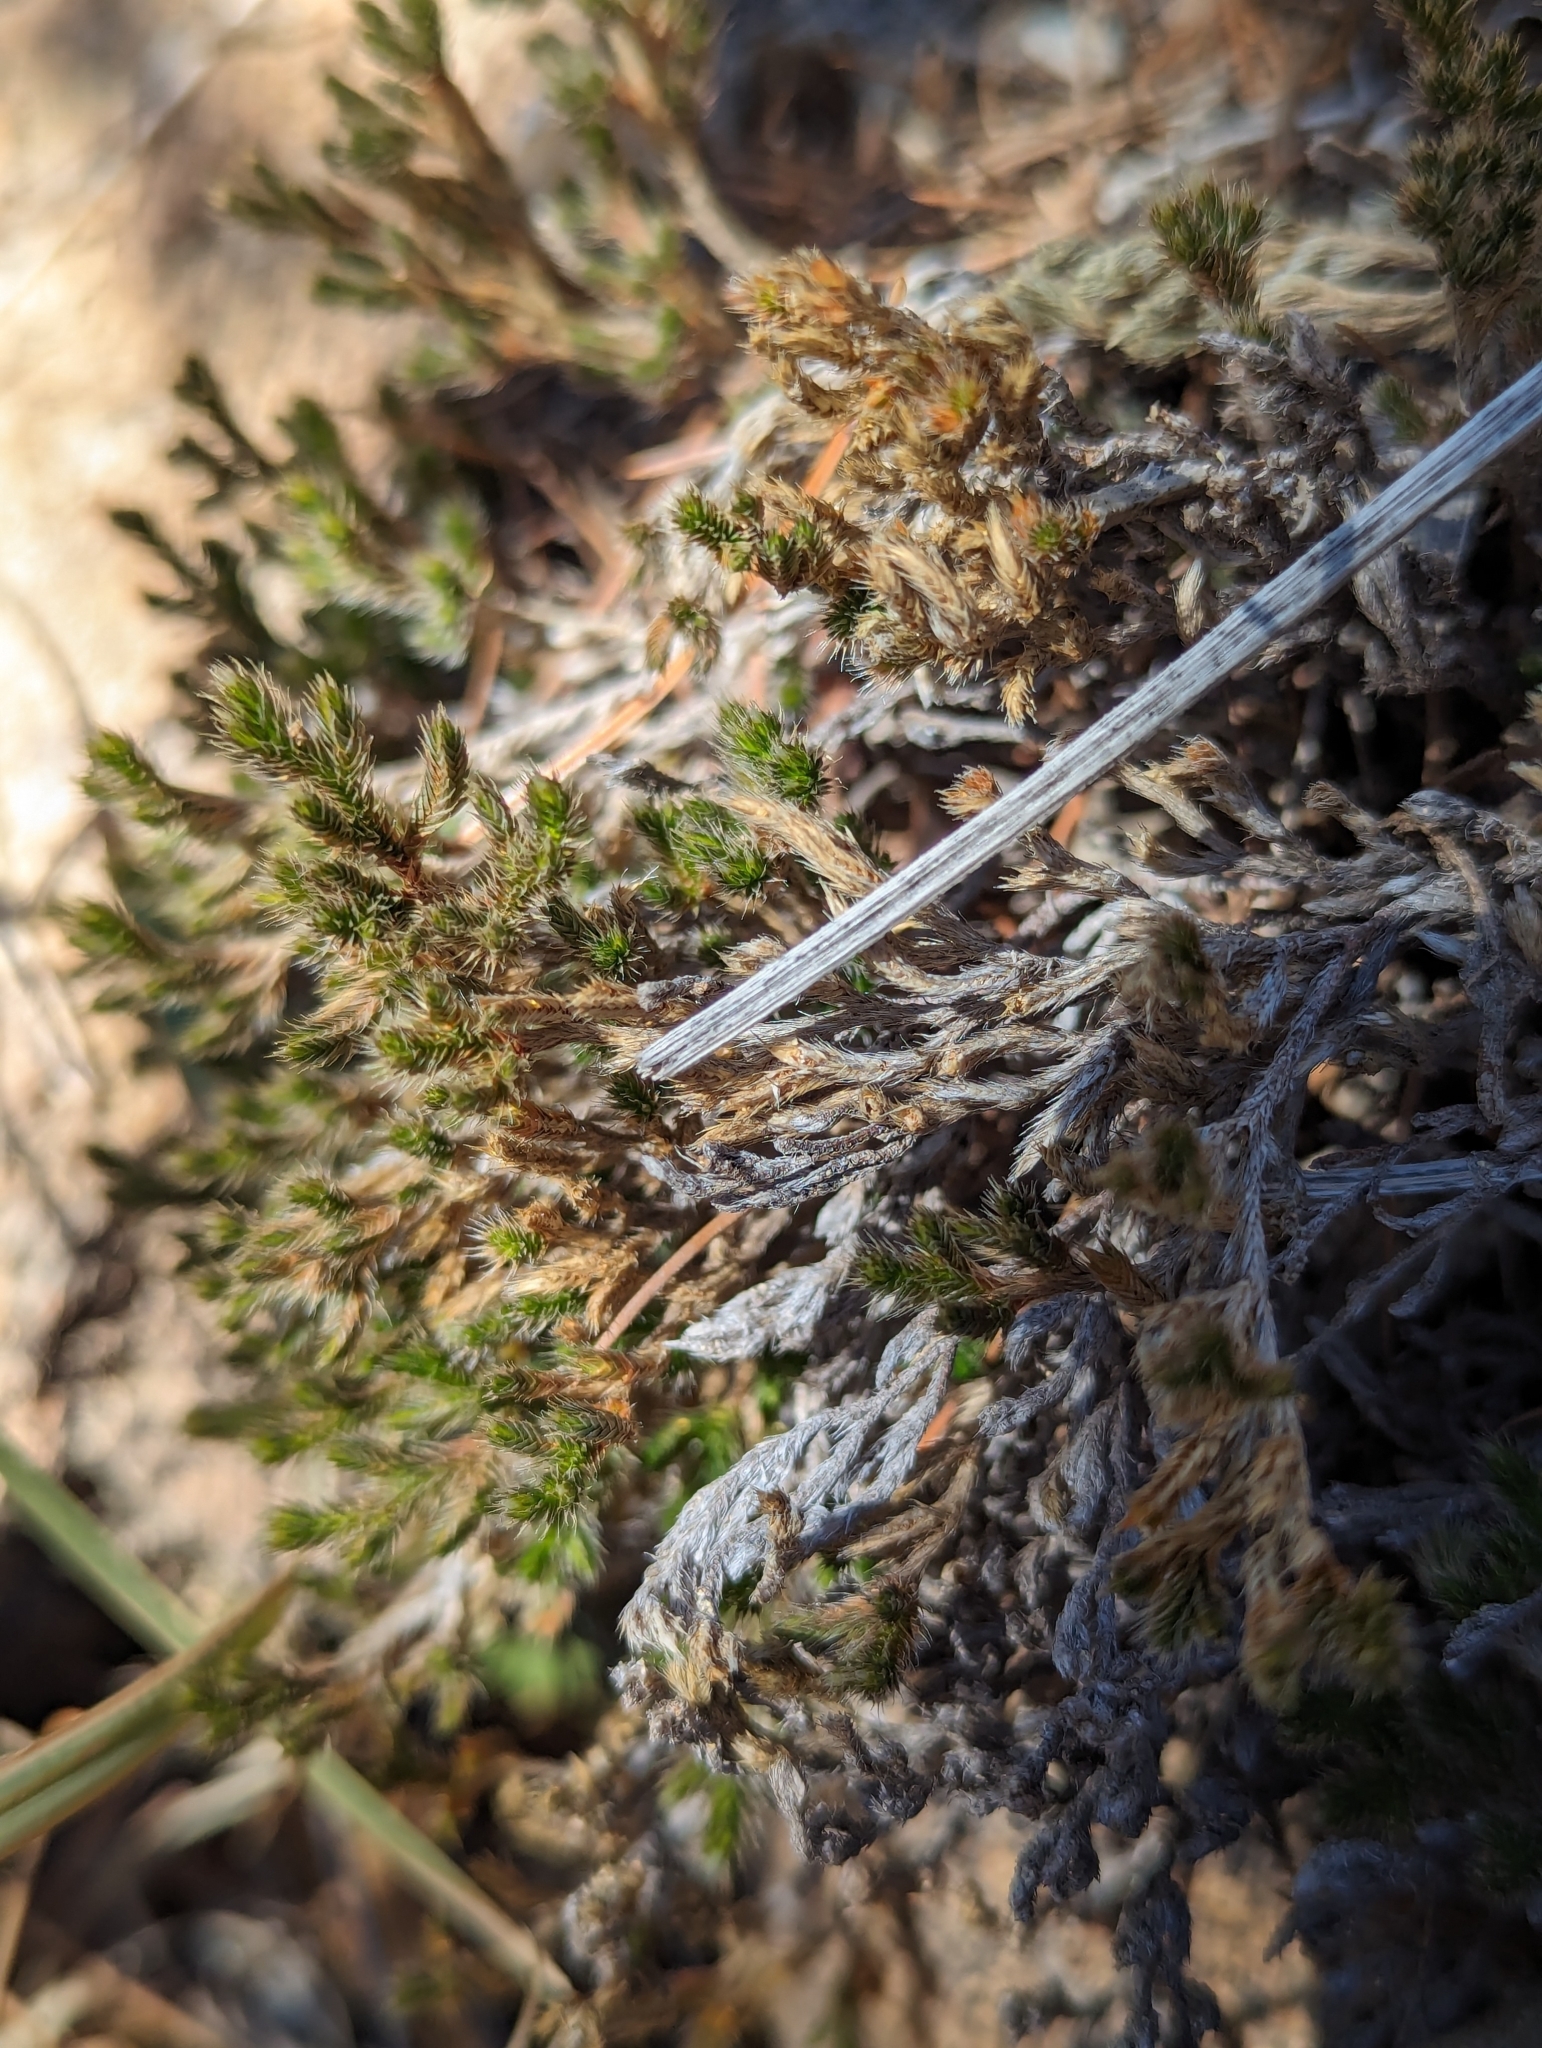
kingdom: Plantae
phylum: Tracheophyta
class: Lycopodiopsida
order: Selaginellales
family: Selaginellaceae
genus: Selaginella
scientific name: Selaginella rupincola
